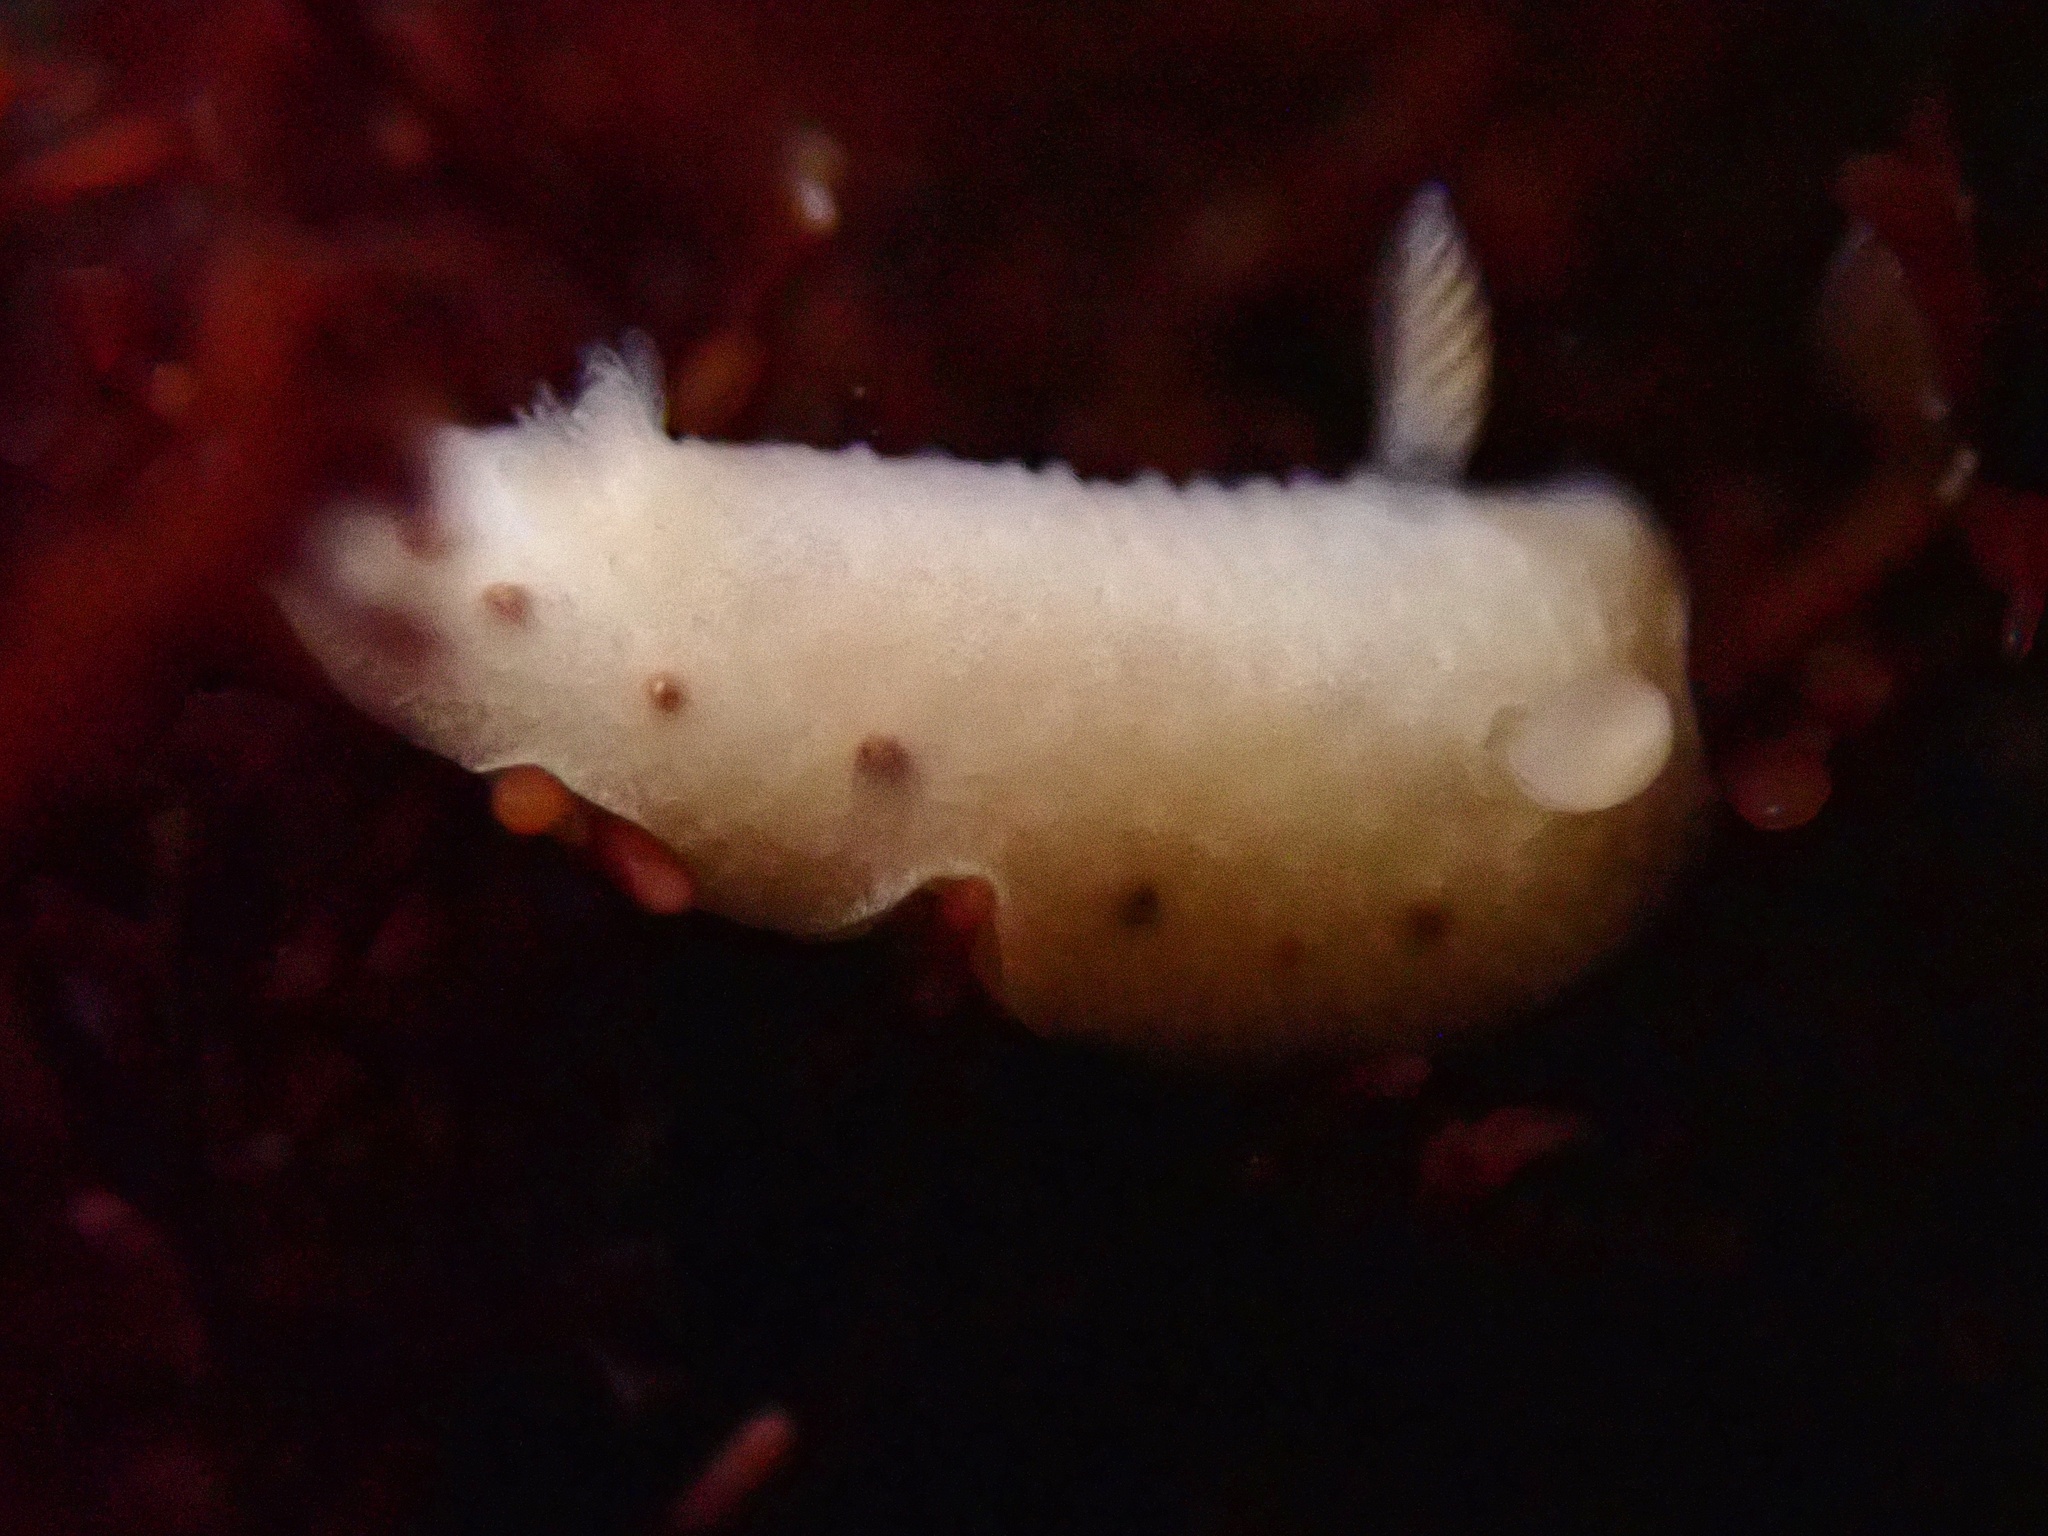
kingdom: Animalia
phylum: Mollusca
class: Gastropoda
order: Nudibranchia
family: Cadlinidae
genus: Cadlina
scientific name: Cadlina sparsa
